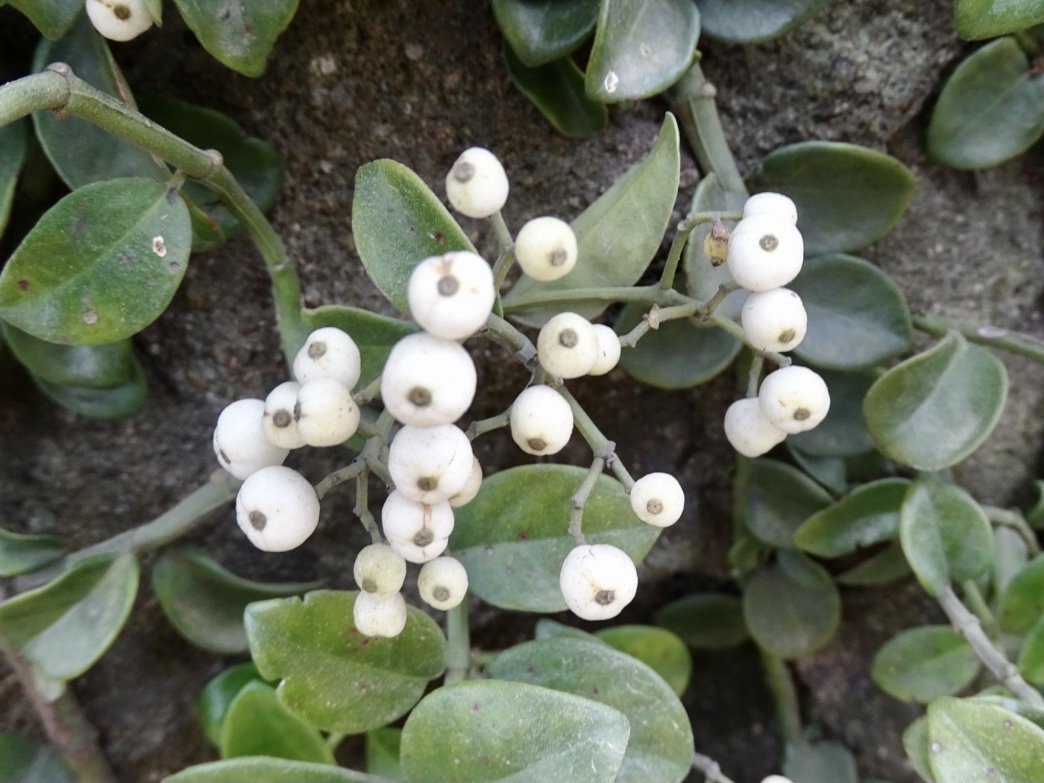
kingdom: Plantae
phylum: Tracheophyta
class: Magnoliopsida
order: Gentianales
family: Rubiaceae
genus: Psychotria
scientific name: Psychotria serpens
